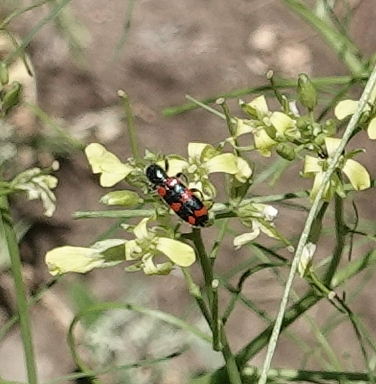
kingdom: Animalia
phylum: Arthropoda
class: Insecta
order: Coleoptera
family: Cleridae
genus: Trichodes
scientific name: Trichodes nutalli
